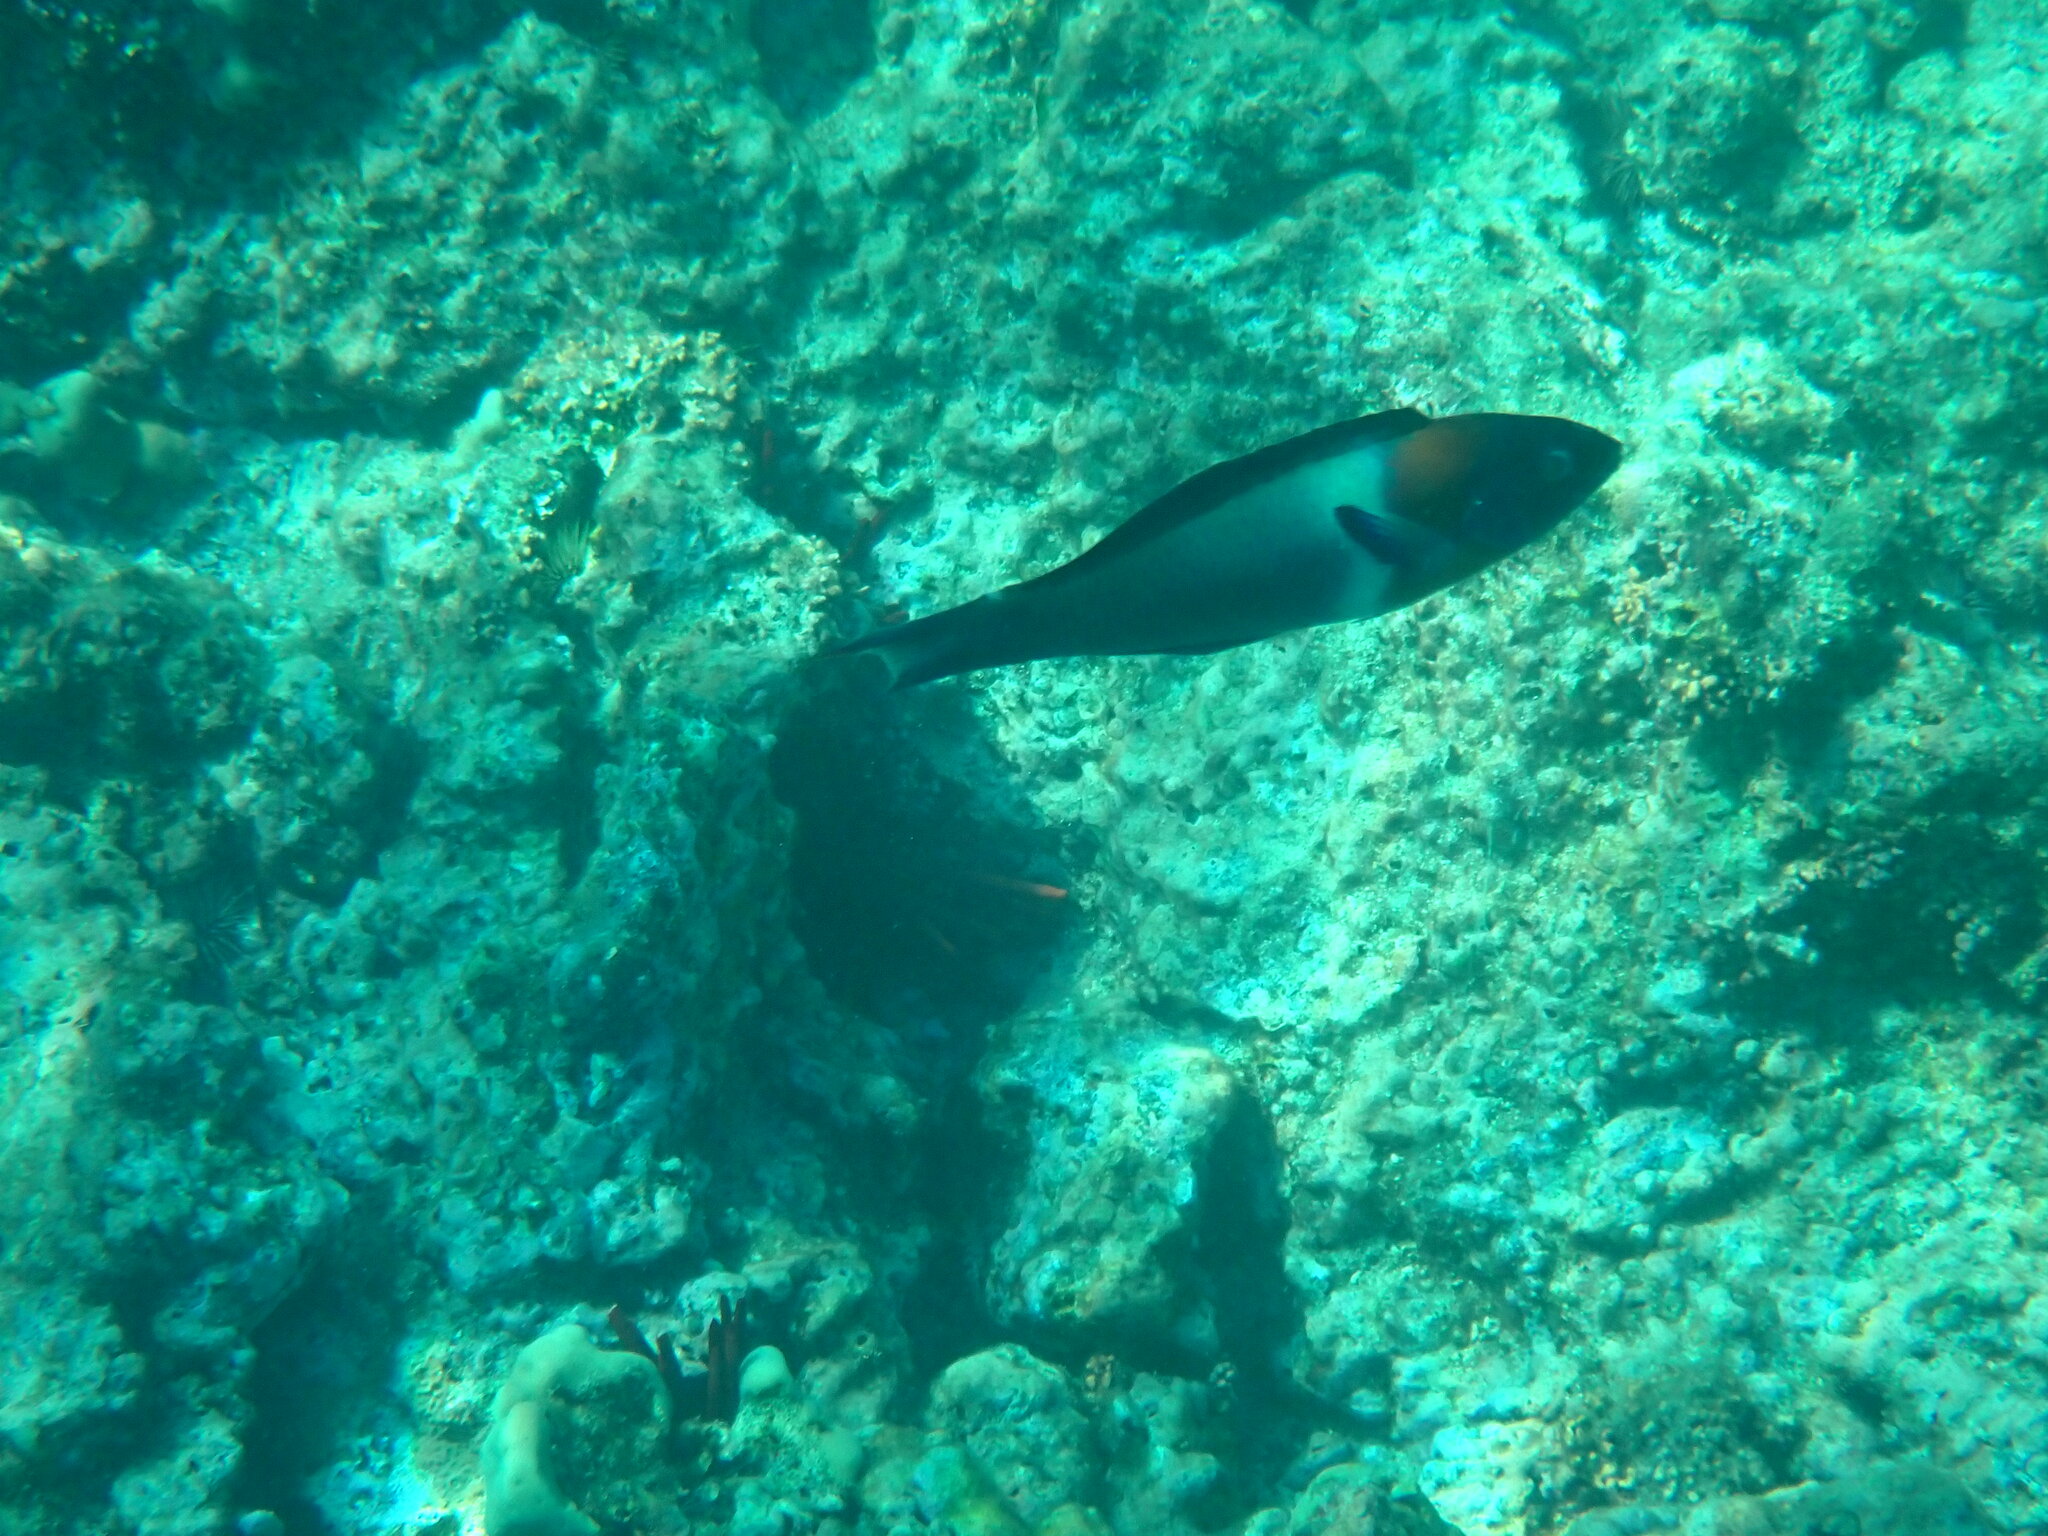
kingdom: Animalia
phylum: Chordata
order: Perciformes
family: Labridae
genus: Thalassoma
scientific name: Thalassoma duperrey
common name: Saddle wrasse
